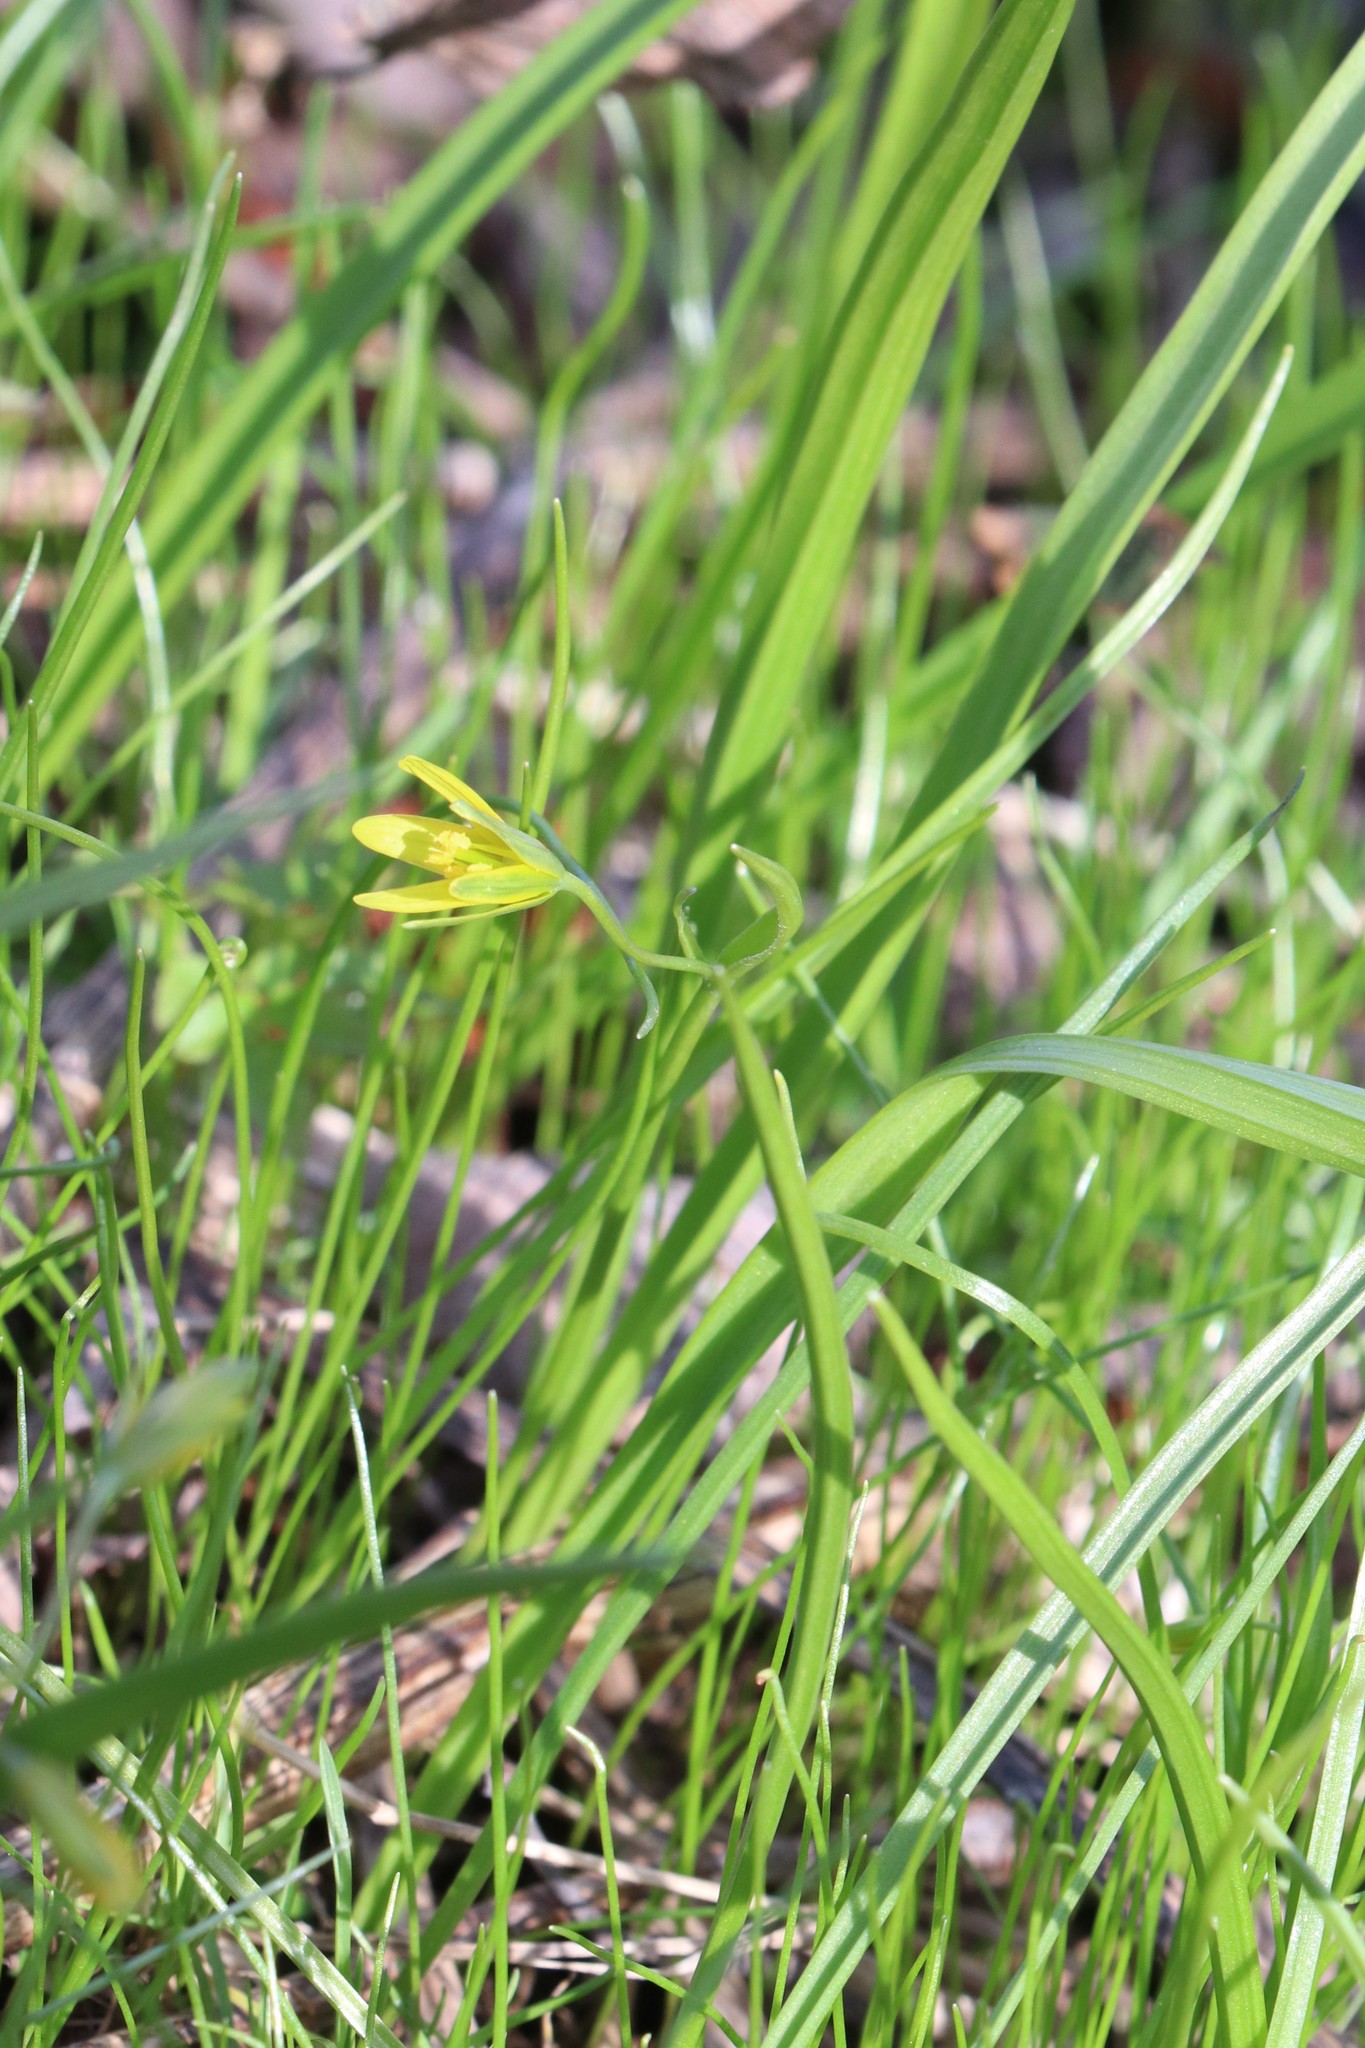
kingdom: Plantae
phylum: Tracheophyta
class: Liliopsida
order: Liliales
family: Liliaceae
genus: Gagea
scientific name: Gagea lutea
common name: Yellow star-of-bethlehem
